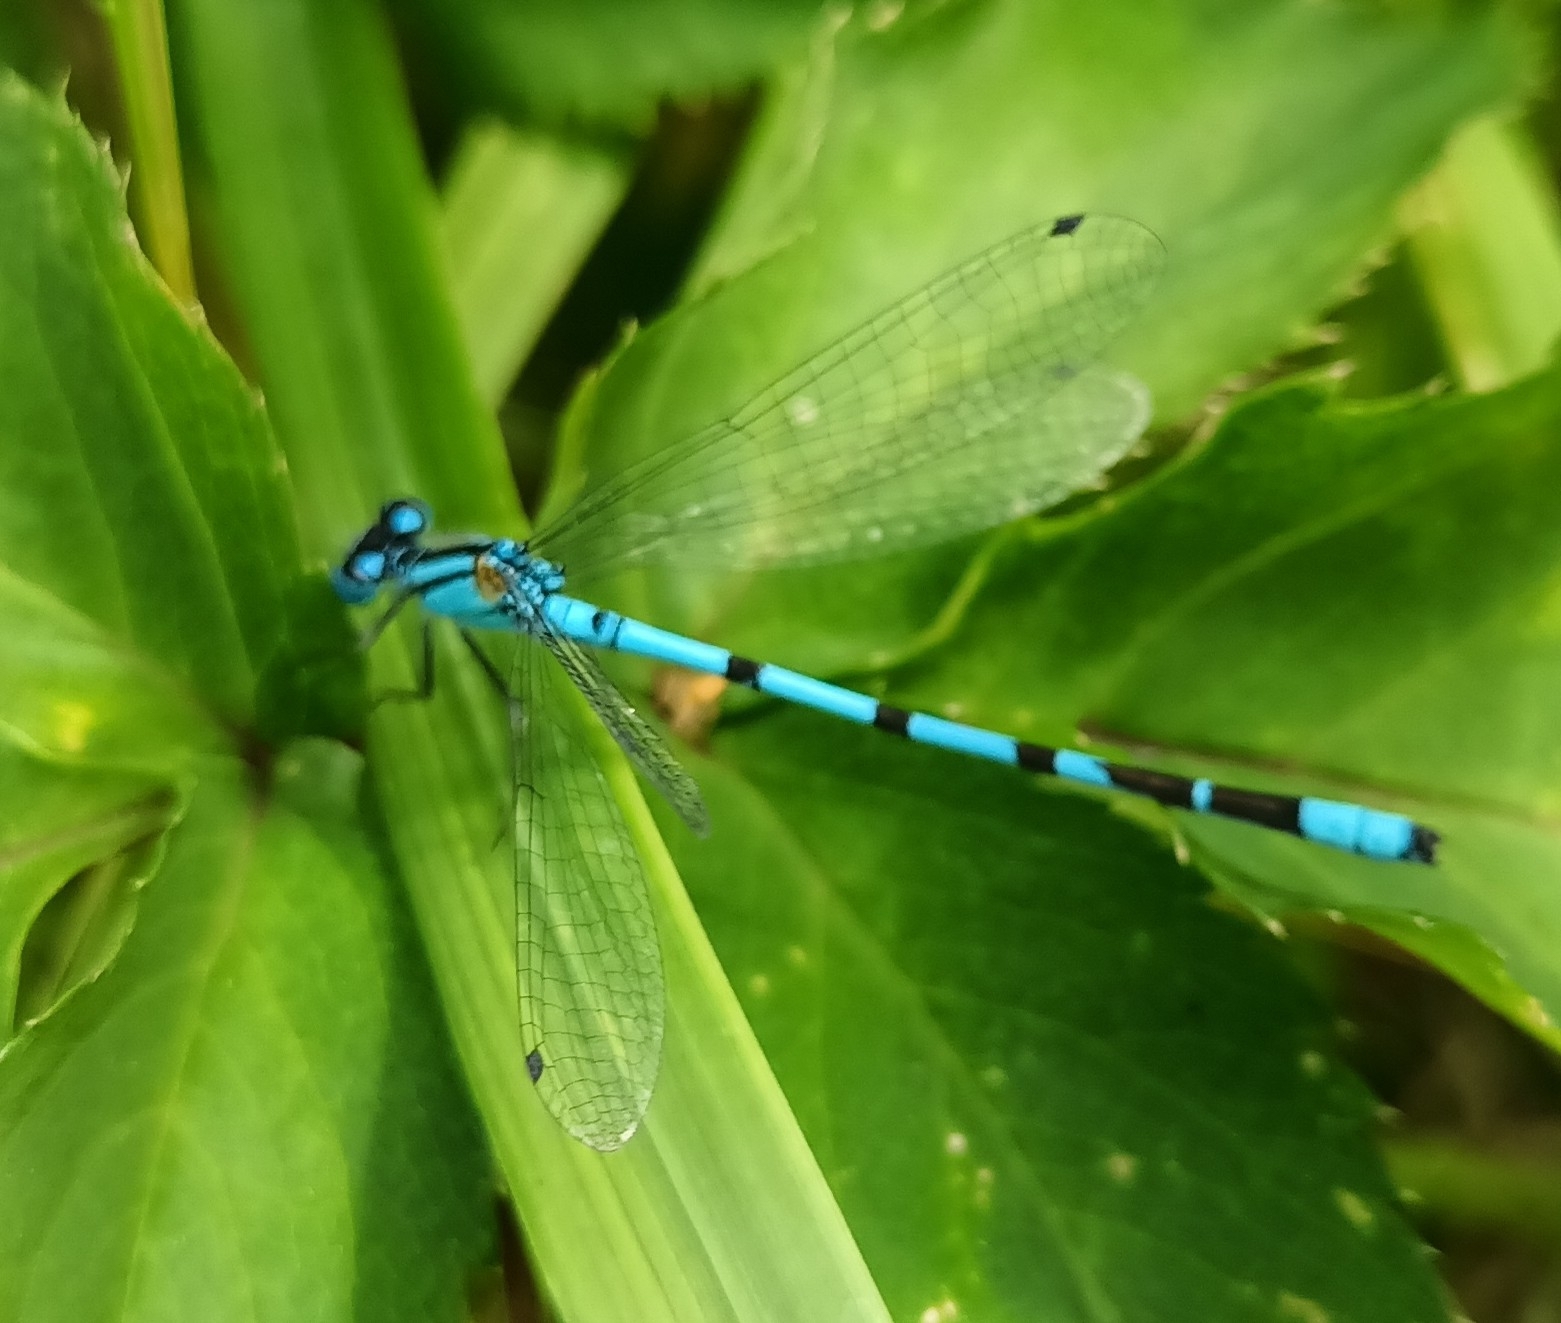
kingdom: Animalia
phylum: Arthropoda
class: Insecta
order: Odonata
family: Coenagrionidae
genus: Enallagma
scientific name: Enallagma cyathigerum
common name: Common blue damselfly
